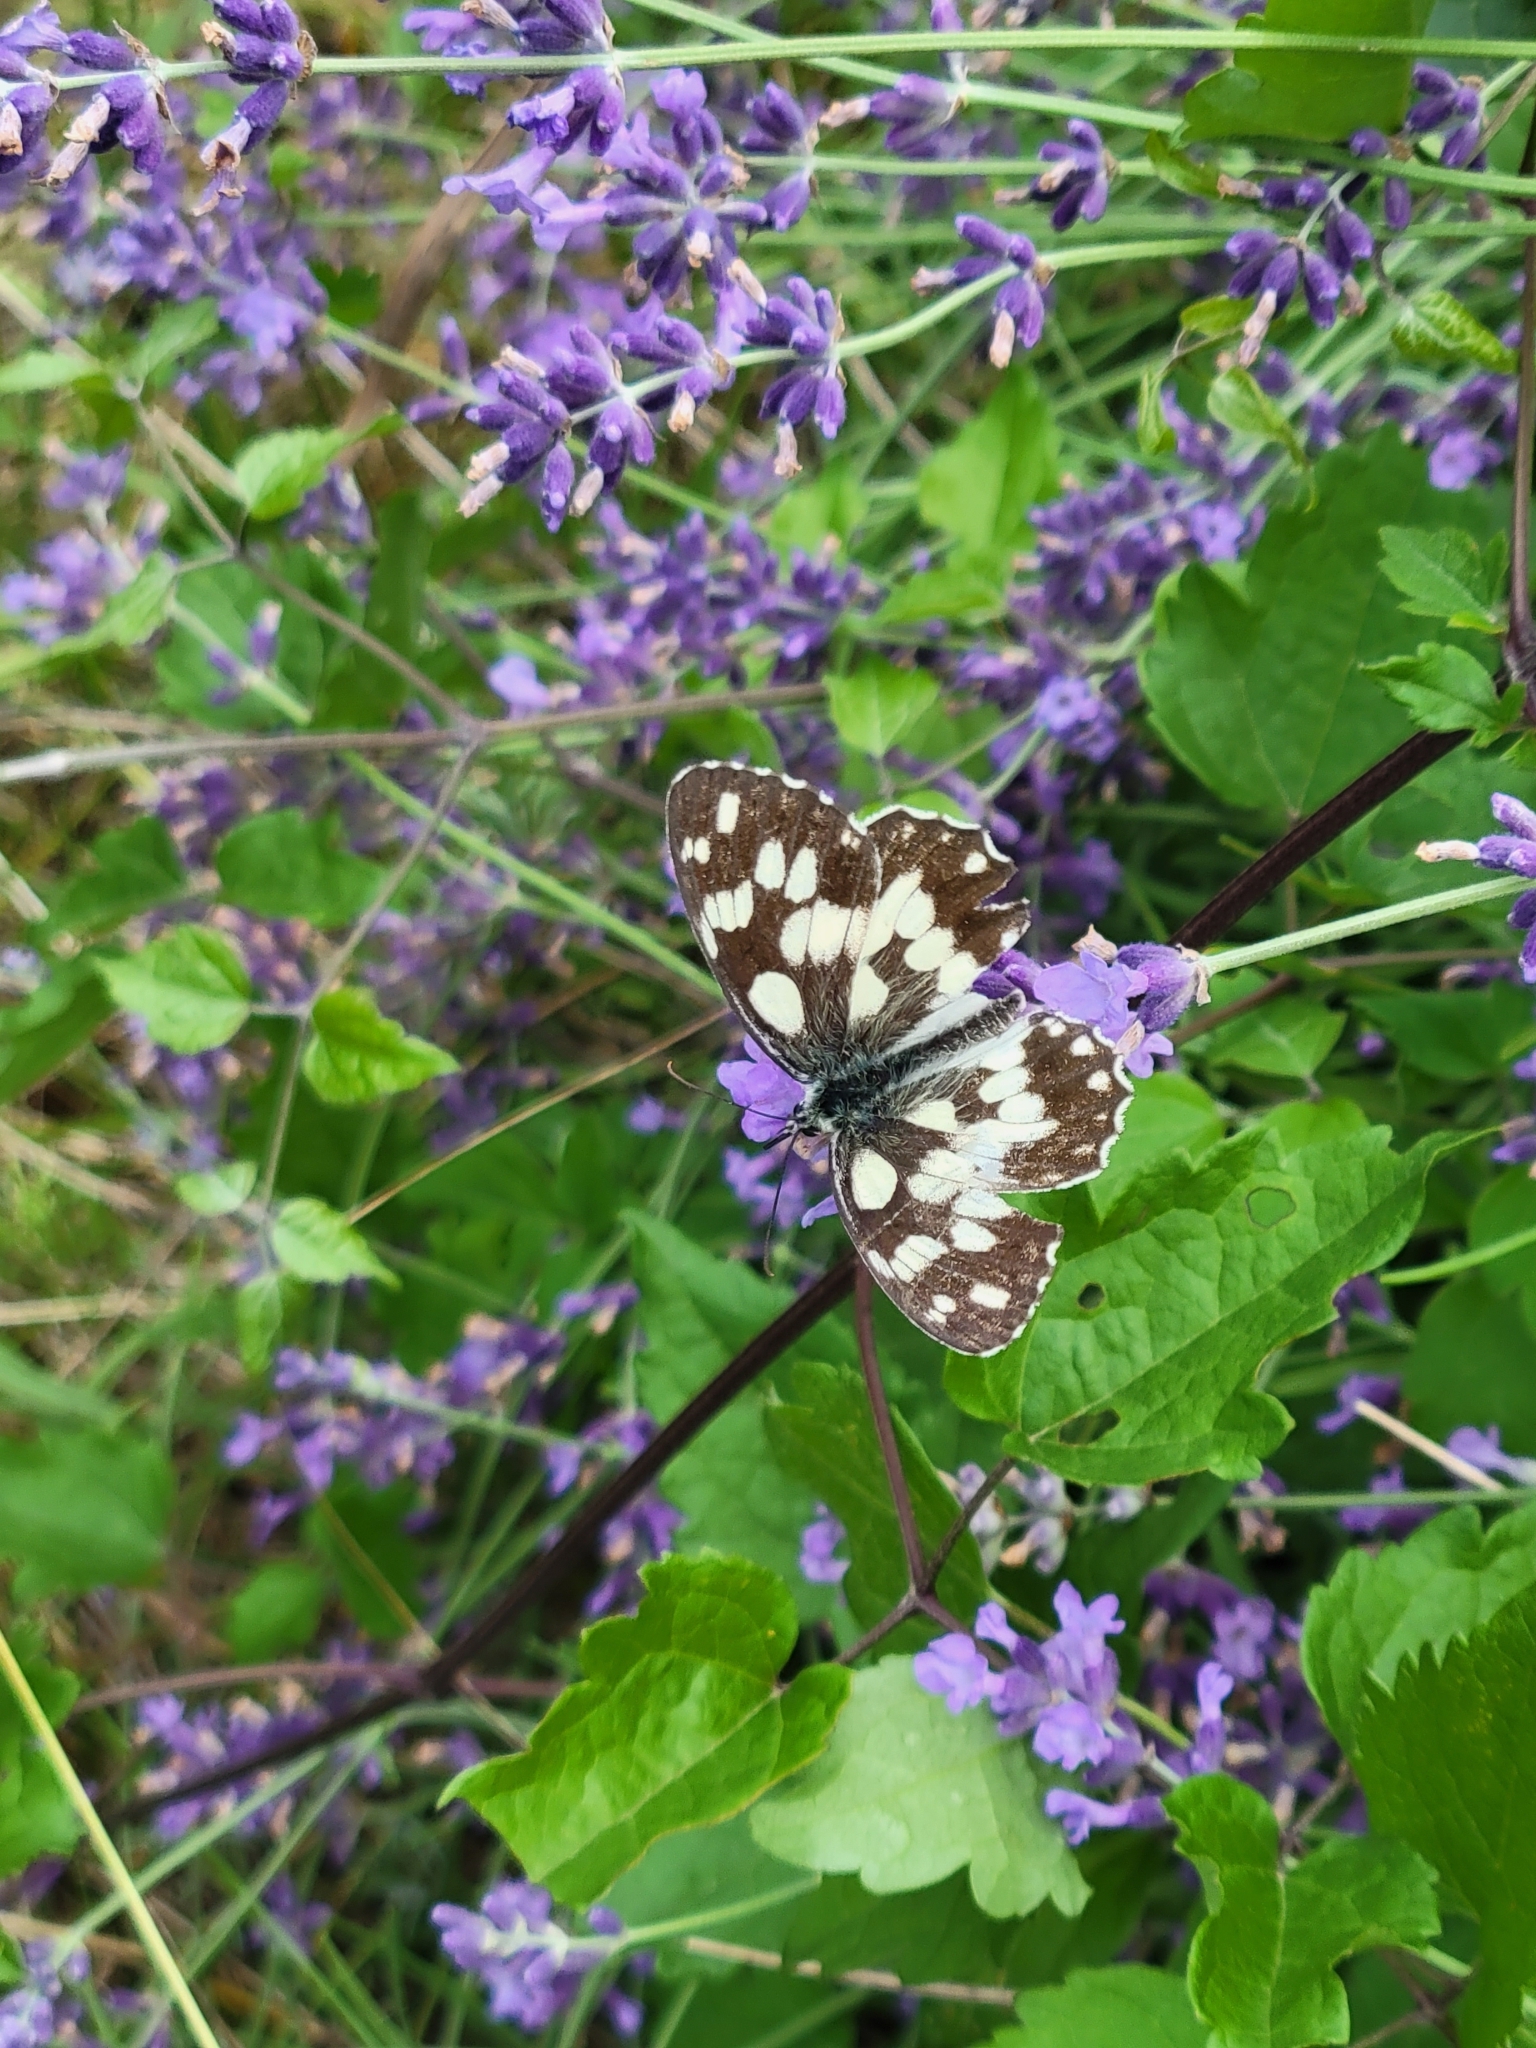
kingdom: Animalia
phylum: Arthropoda
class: Insecta
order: Lepidoptera
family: Nymphalidae
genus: Melanargia
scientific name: Melanargia galathea
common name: Marbled white
